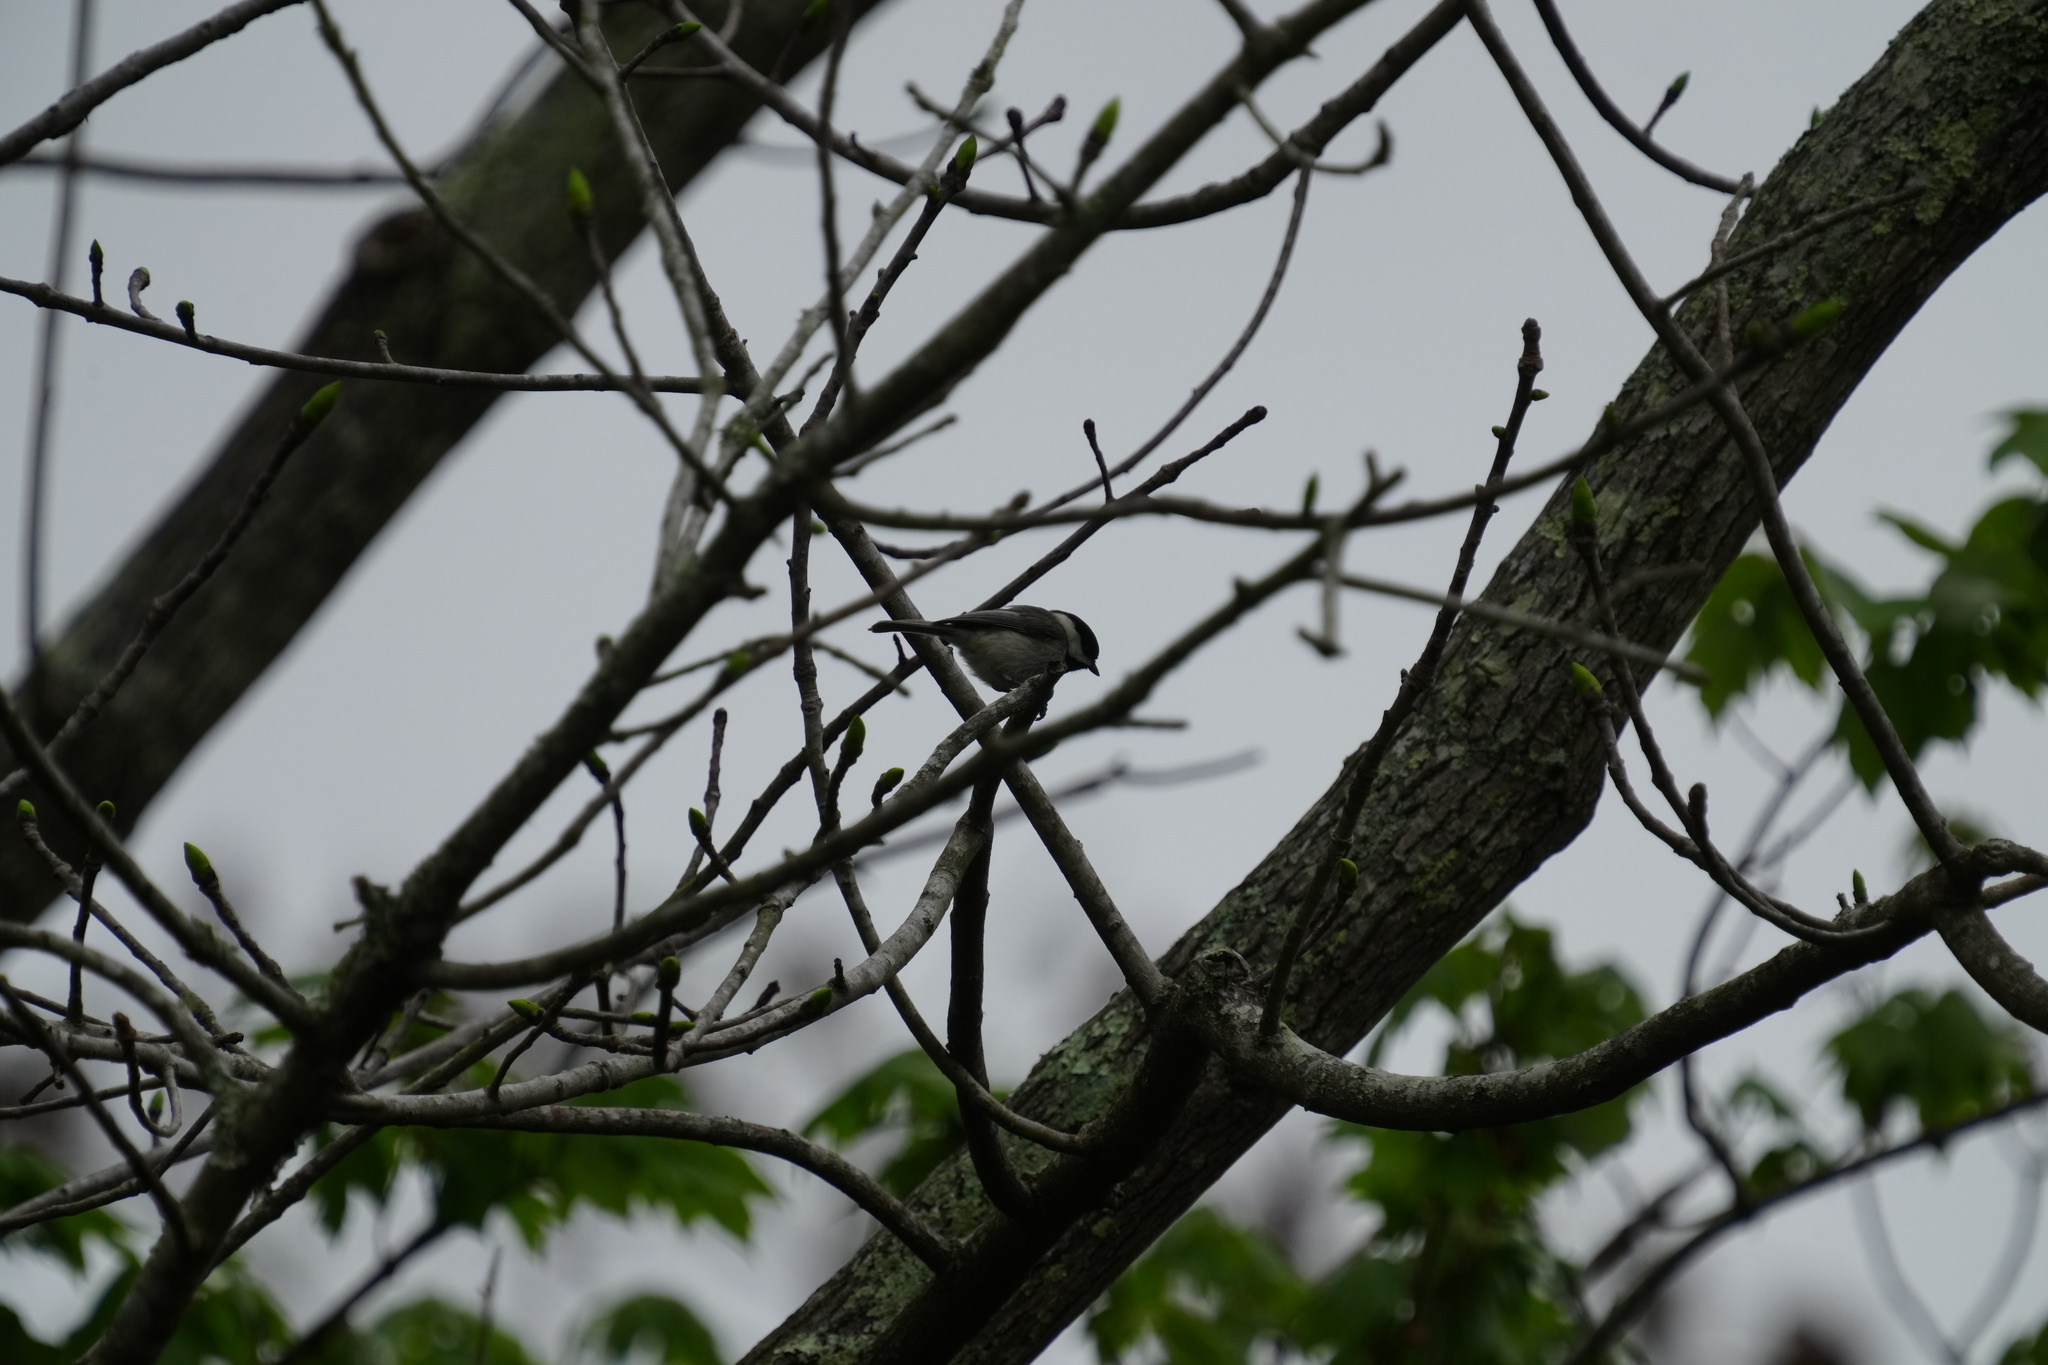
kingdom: Animalia
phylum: Chordata
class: Aves
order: Passeriformes
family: Paridae
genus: Poecile
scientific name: Poecile carolinensis
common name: Carolina chickadee
